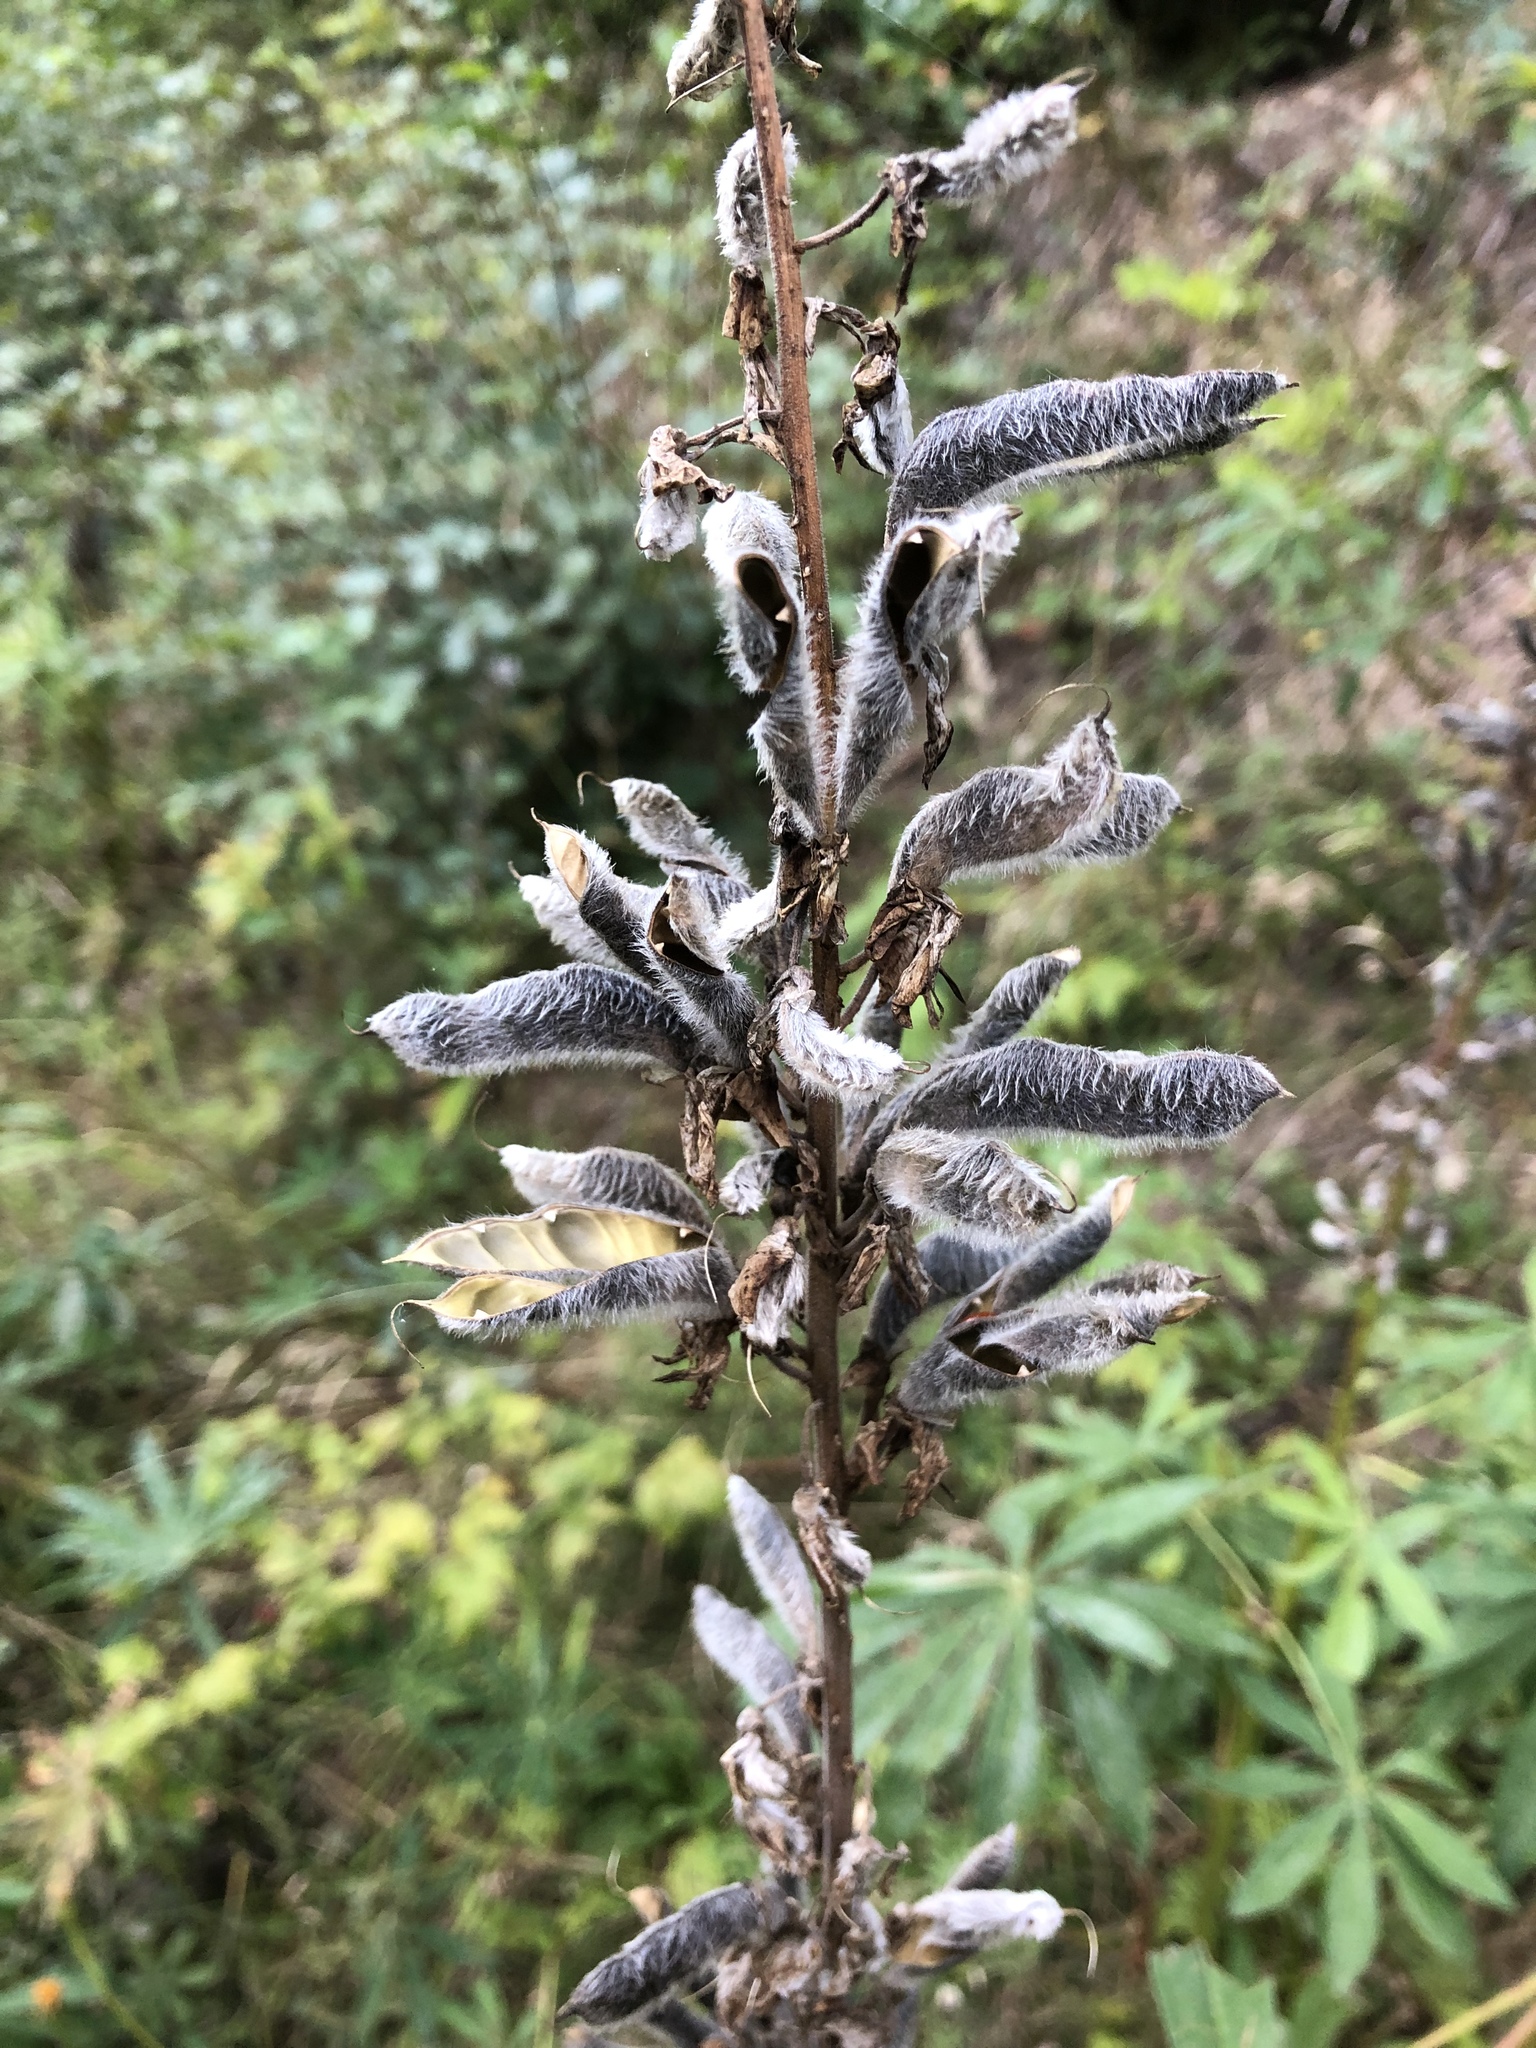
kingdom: Plantae
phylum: Tracheophyta
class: Magnoliopsida
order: Fabales
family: Fabaceae
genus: Lupinus
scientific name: Lupinus polyphyllus
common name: Garden lupin
